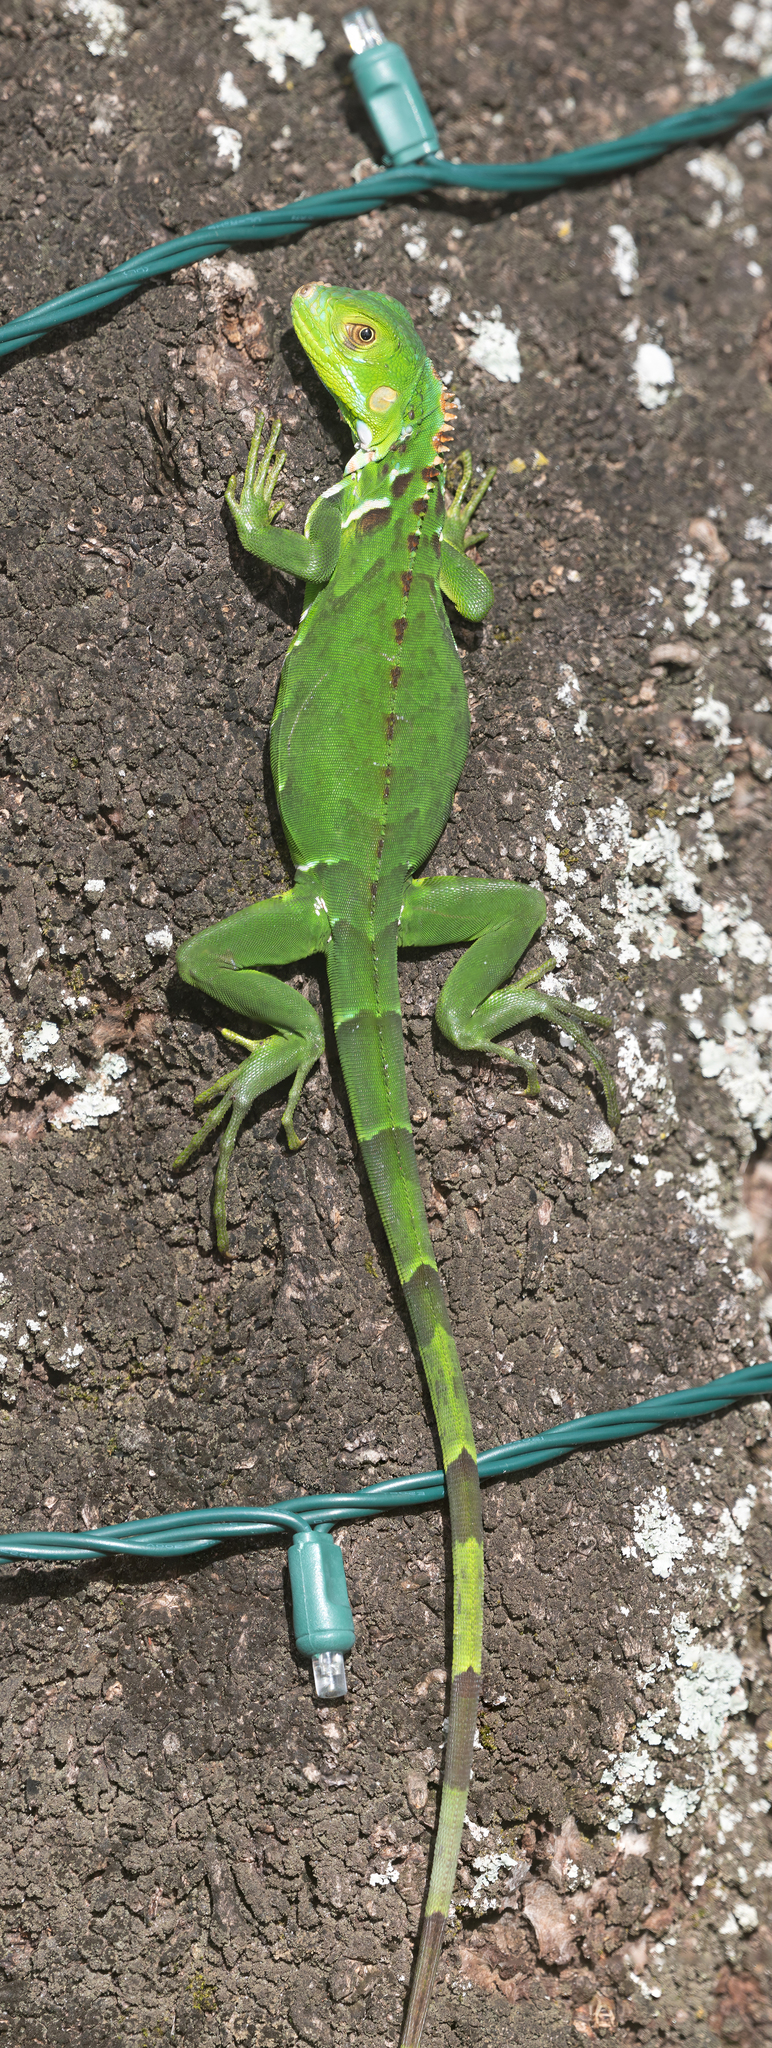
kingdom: Animalia
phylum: Chordata
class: Squamata
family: Iguanidae
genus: Iguana
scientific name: Iguana iguana
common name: Green iguana
